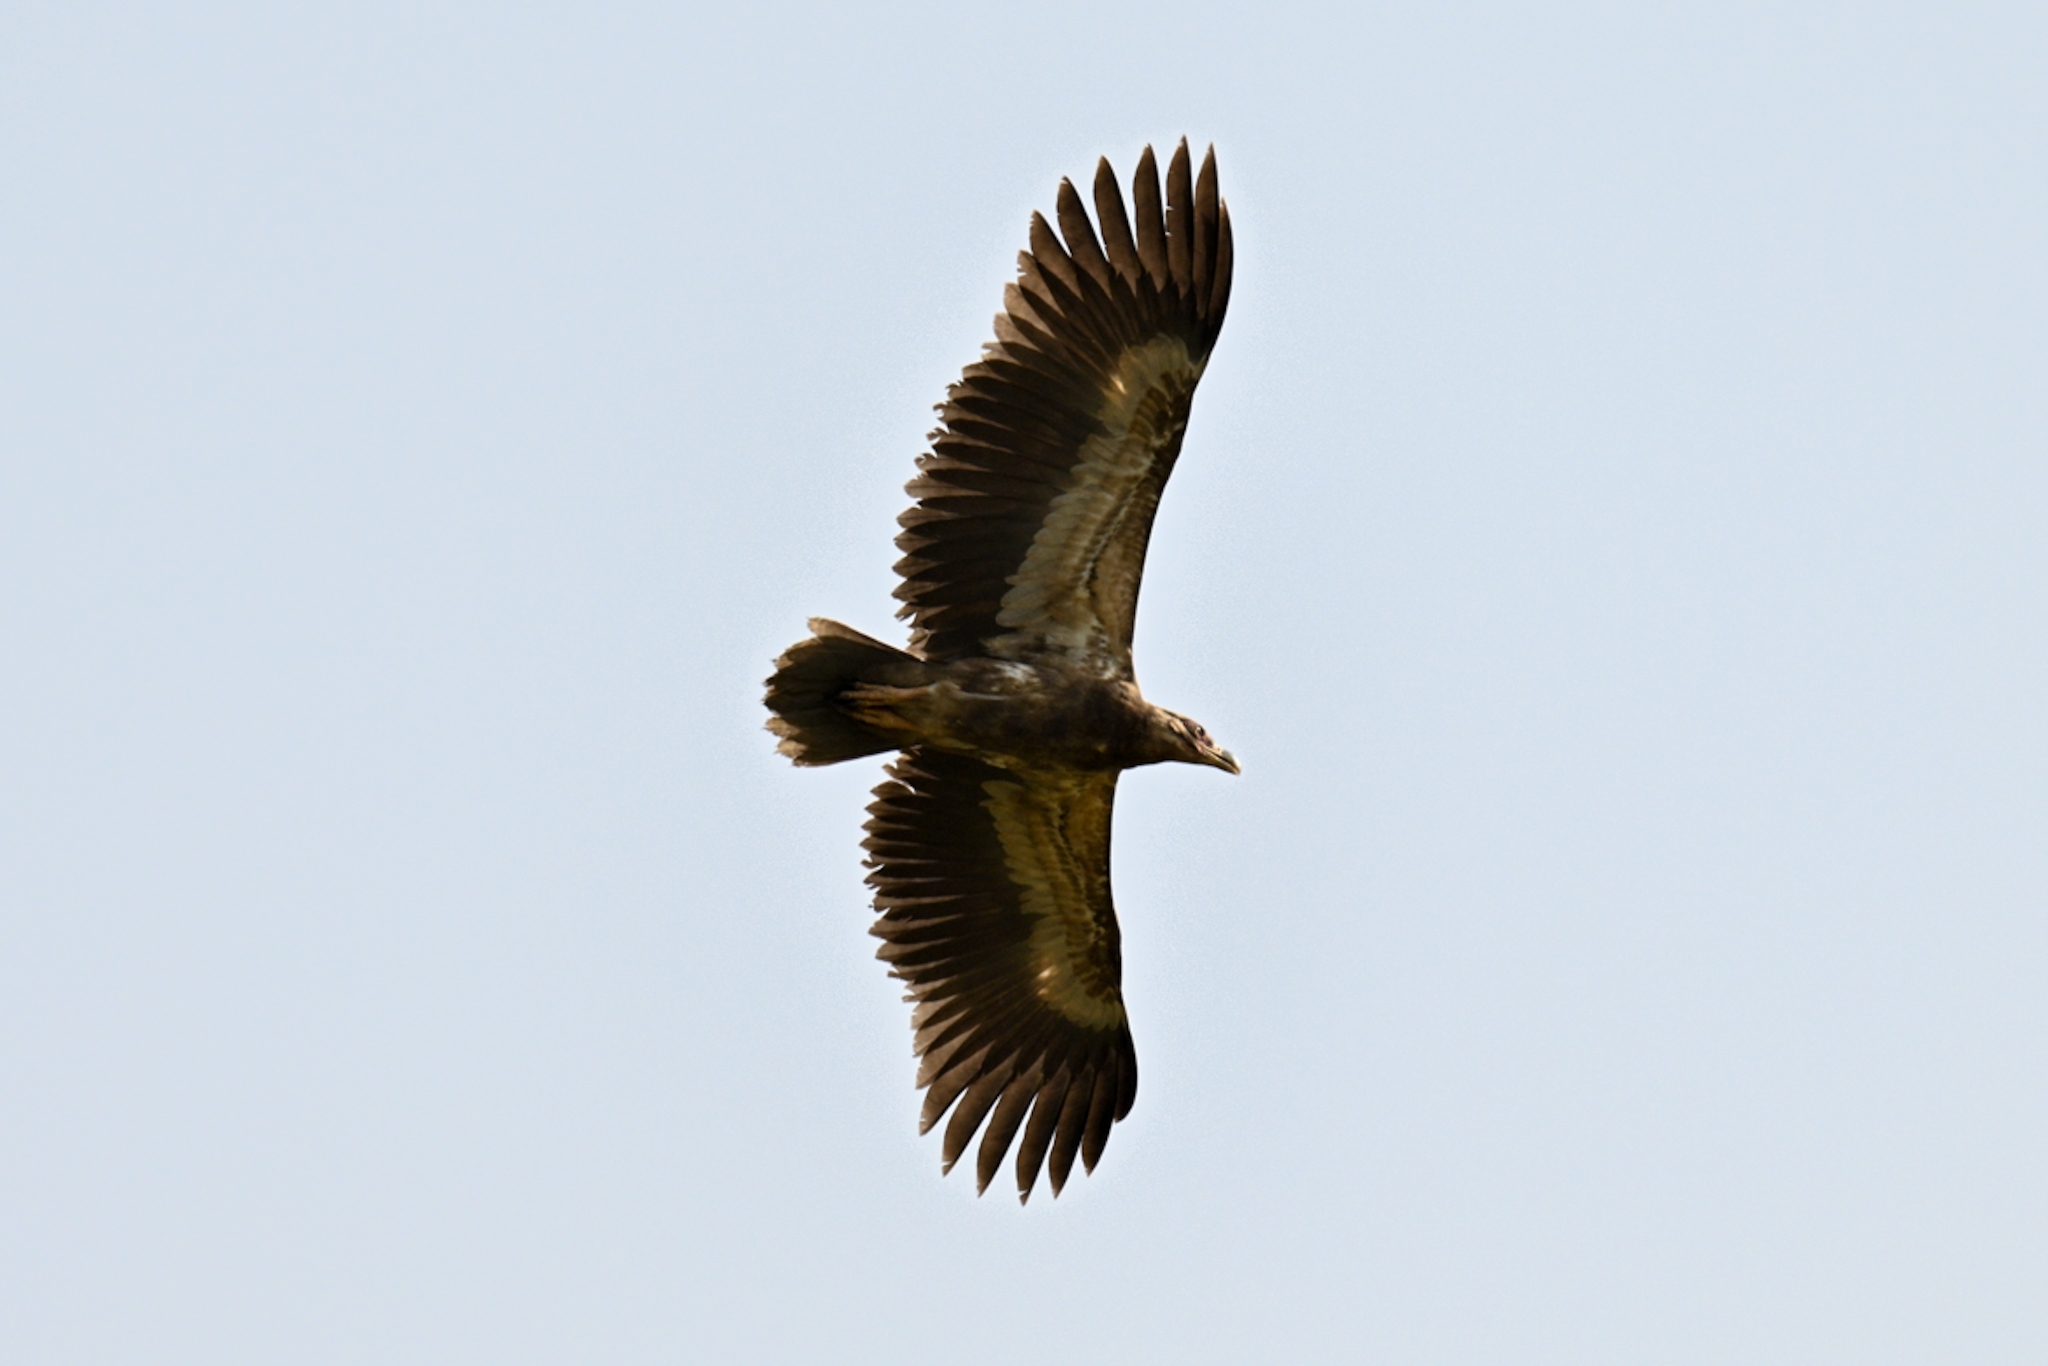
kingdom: Animalia
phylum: Chordata
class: Aves
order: Accipitriformes
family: Accipitridae
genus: Gypohierax
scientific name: Gypohierax angolensis
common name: Palm-nut vulture
